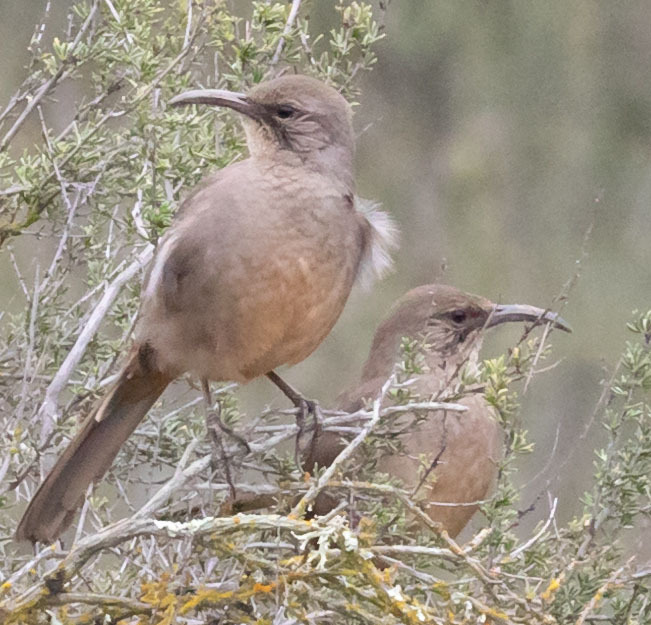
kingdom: Animalia
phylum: Chordata
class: Aves
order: Passeriformes
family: Mimidae
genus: Toxostoma
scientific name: Toxostoma redivivum
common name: California thrasher
